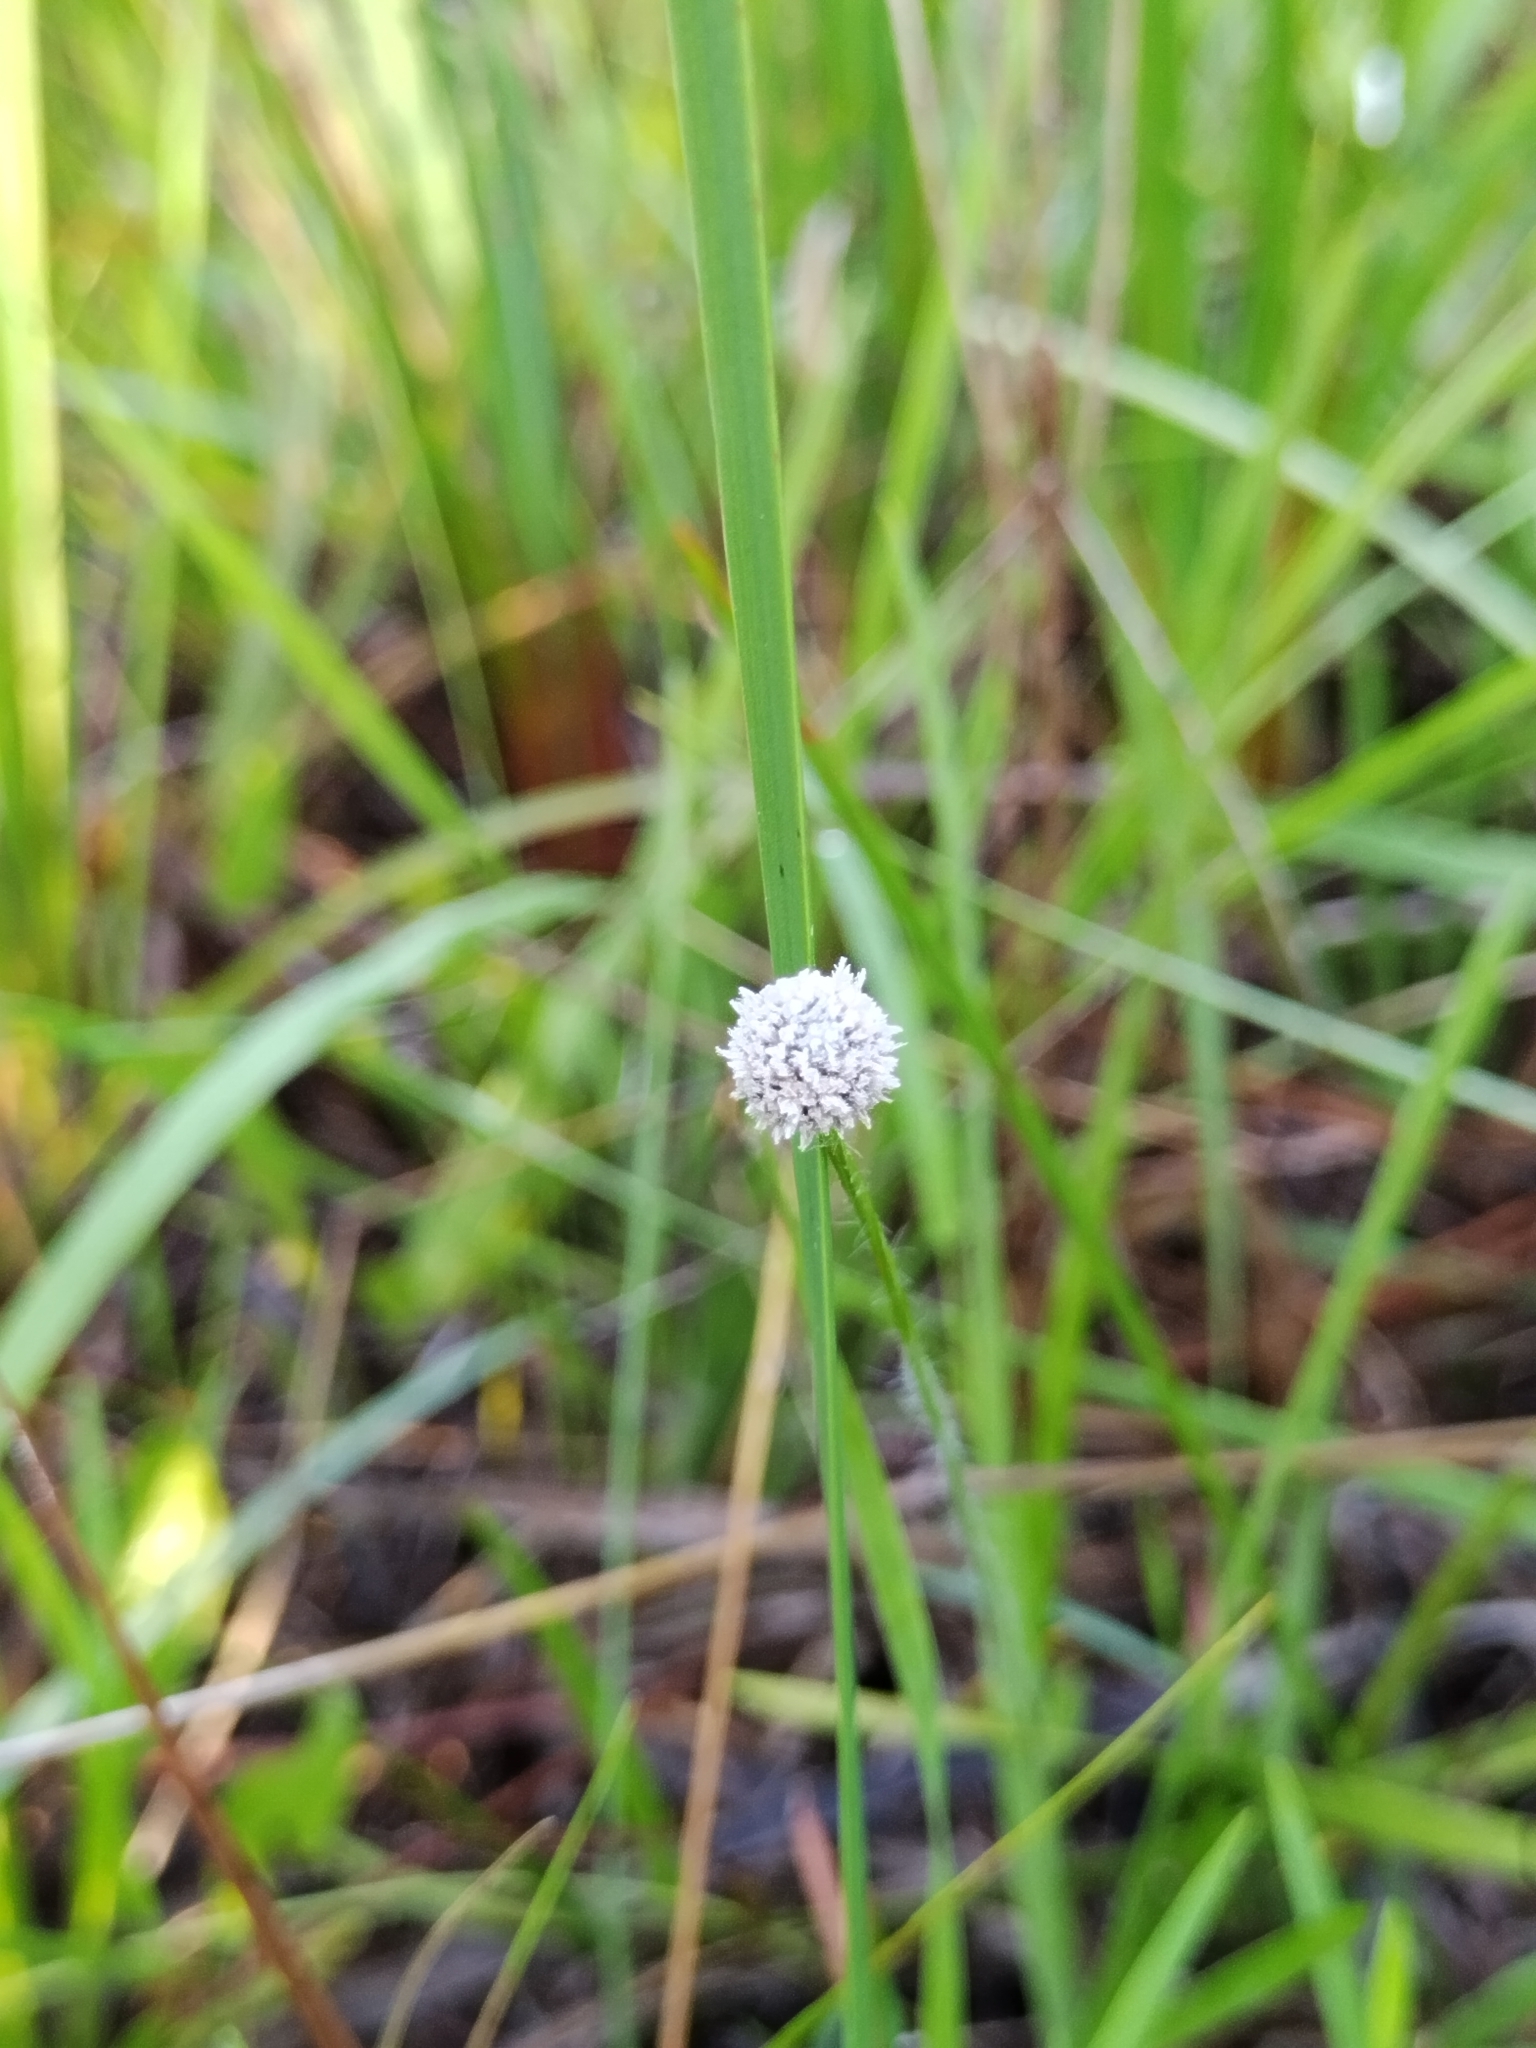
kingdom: Plantae
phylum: Tracheophyta
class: Liliopsida
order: Poales
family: Eriocaulaceae
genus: Paepalanthus
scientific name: Paepalanthus anceps
